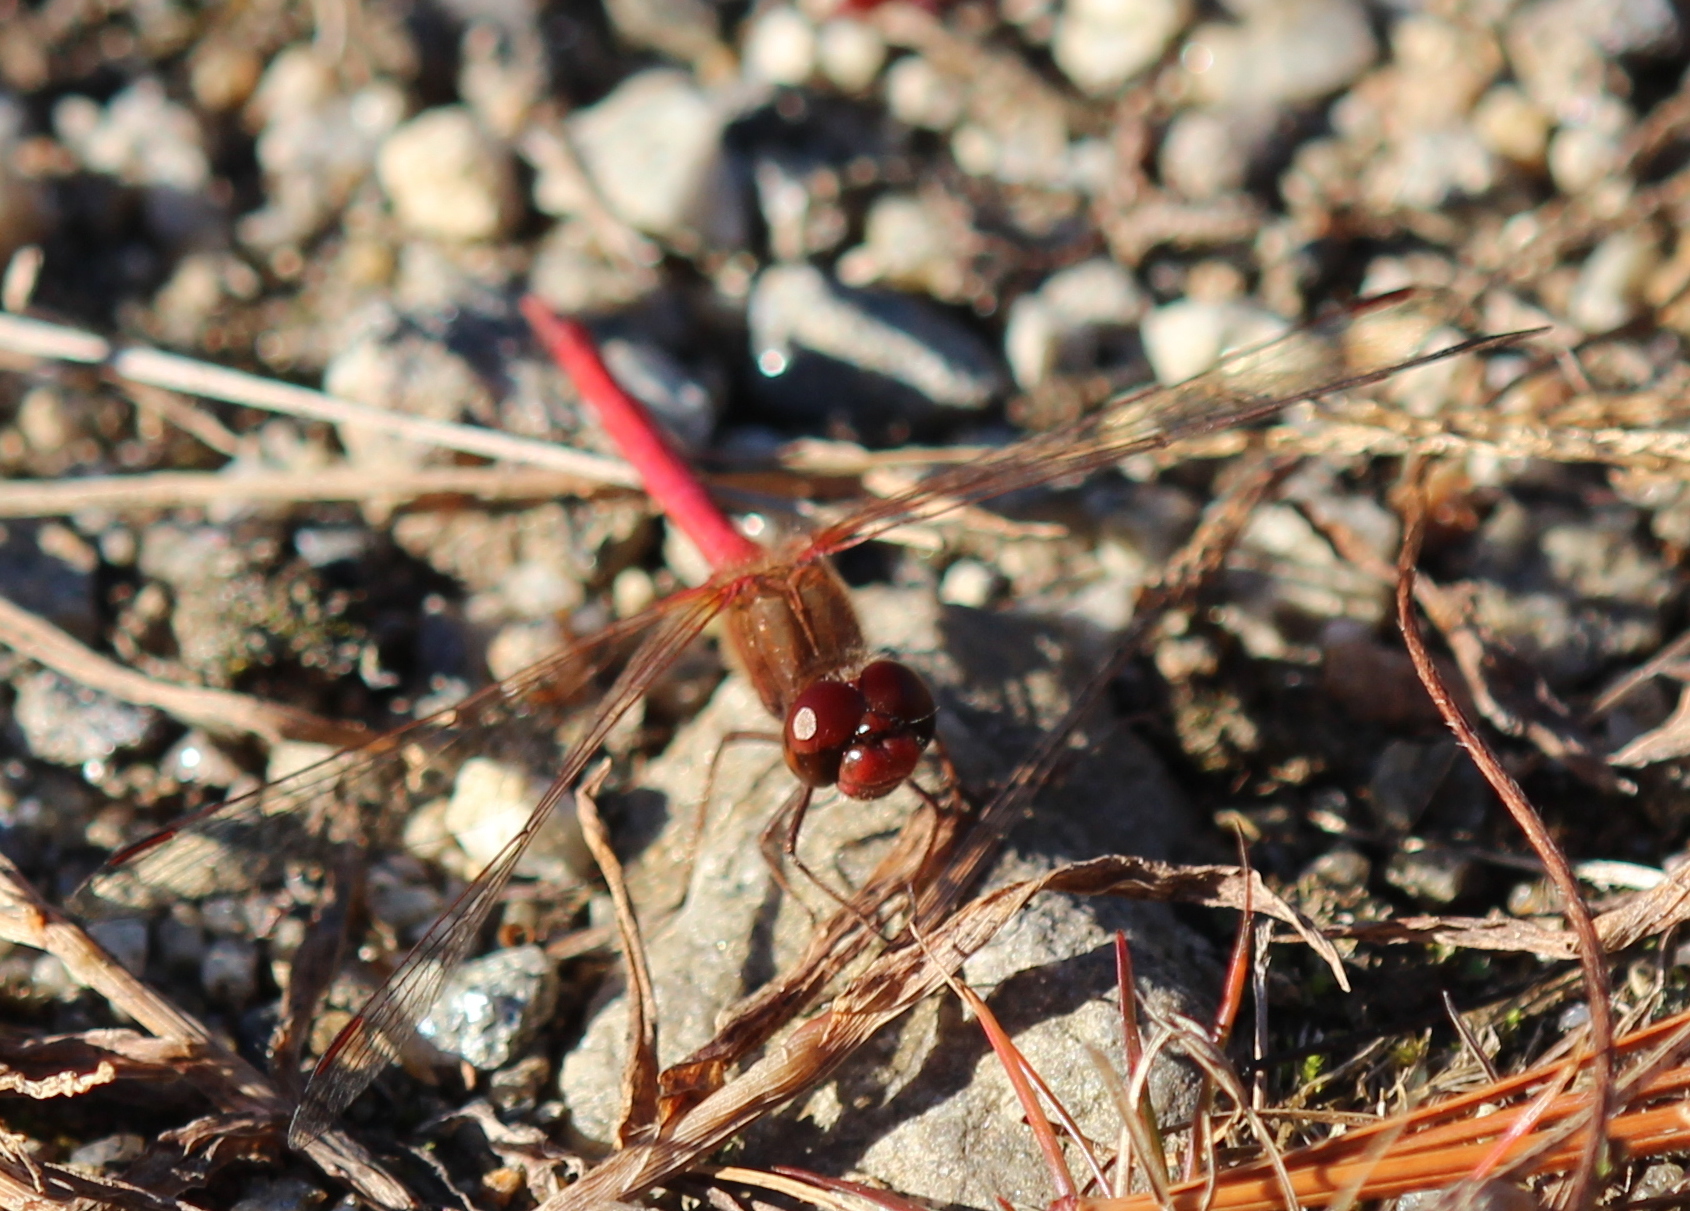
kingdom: Animalia
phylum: Arthropoda
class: Insecta
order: Odonata
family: Libellulidae
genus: Sympetrum
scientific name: Sympetrum vicinum
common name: Autumn meadowhawk
